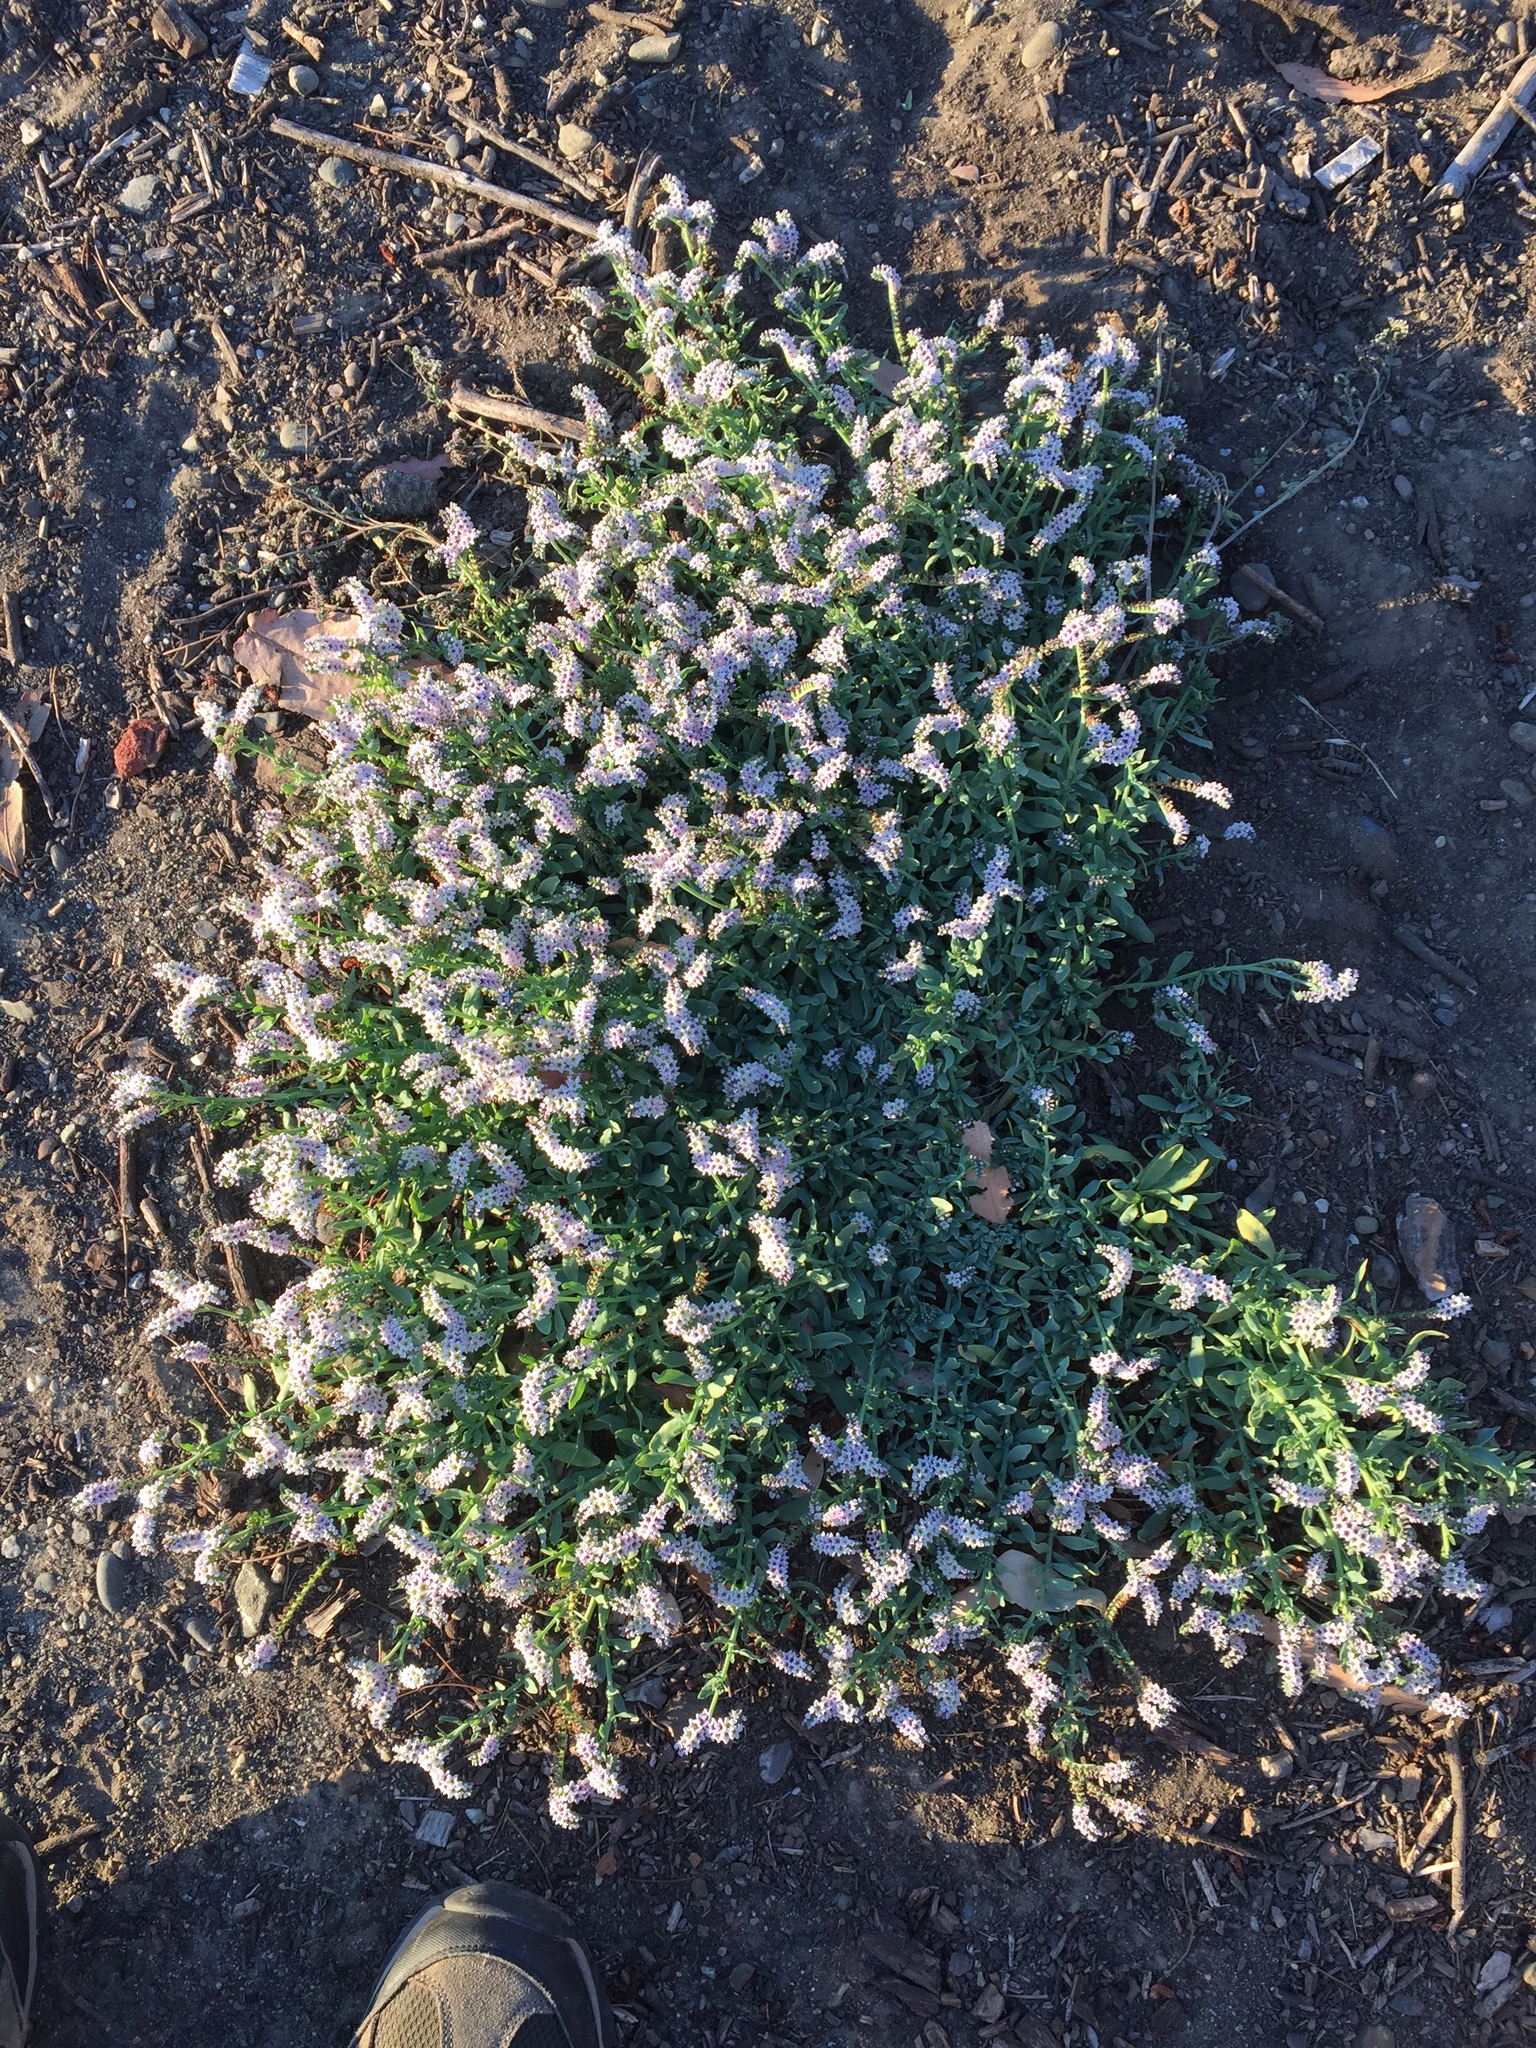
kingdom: Plantae
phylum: Tracheophyta
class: Magnoliopsida
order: Boraginales
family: Heliotropiaceae
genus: Heliotropium
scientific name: Heliotropium curassavicum
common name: Seaside heliotrope
